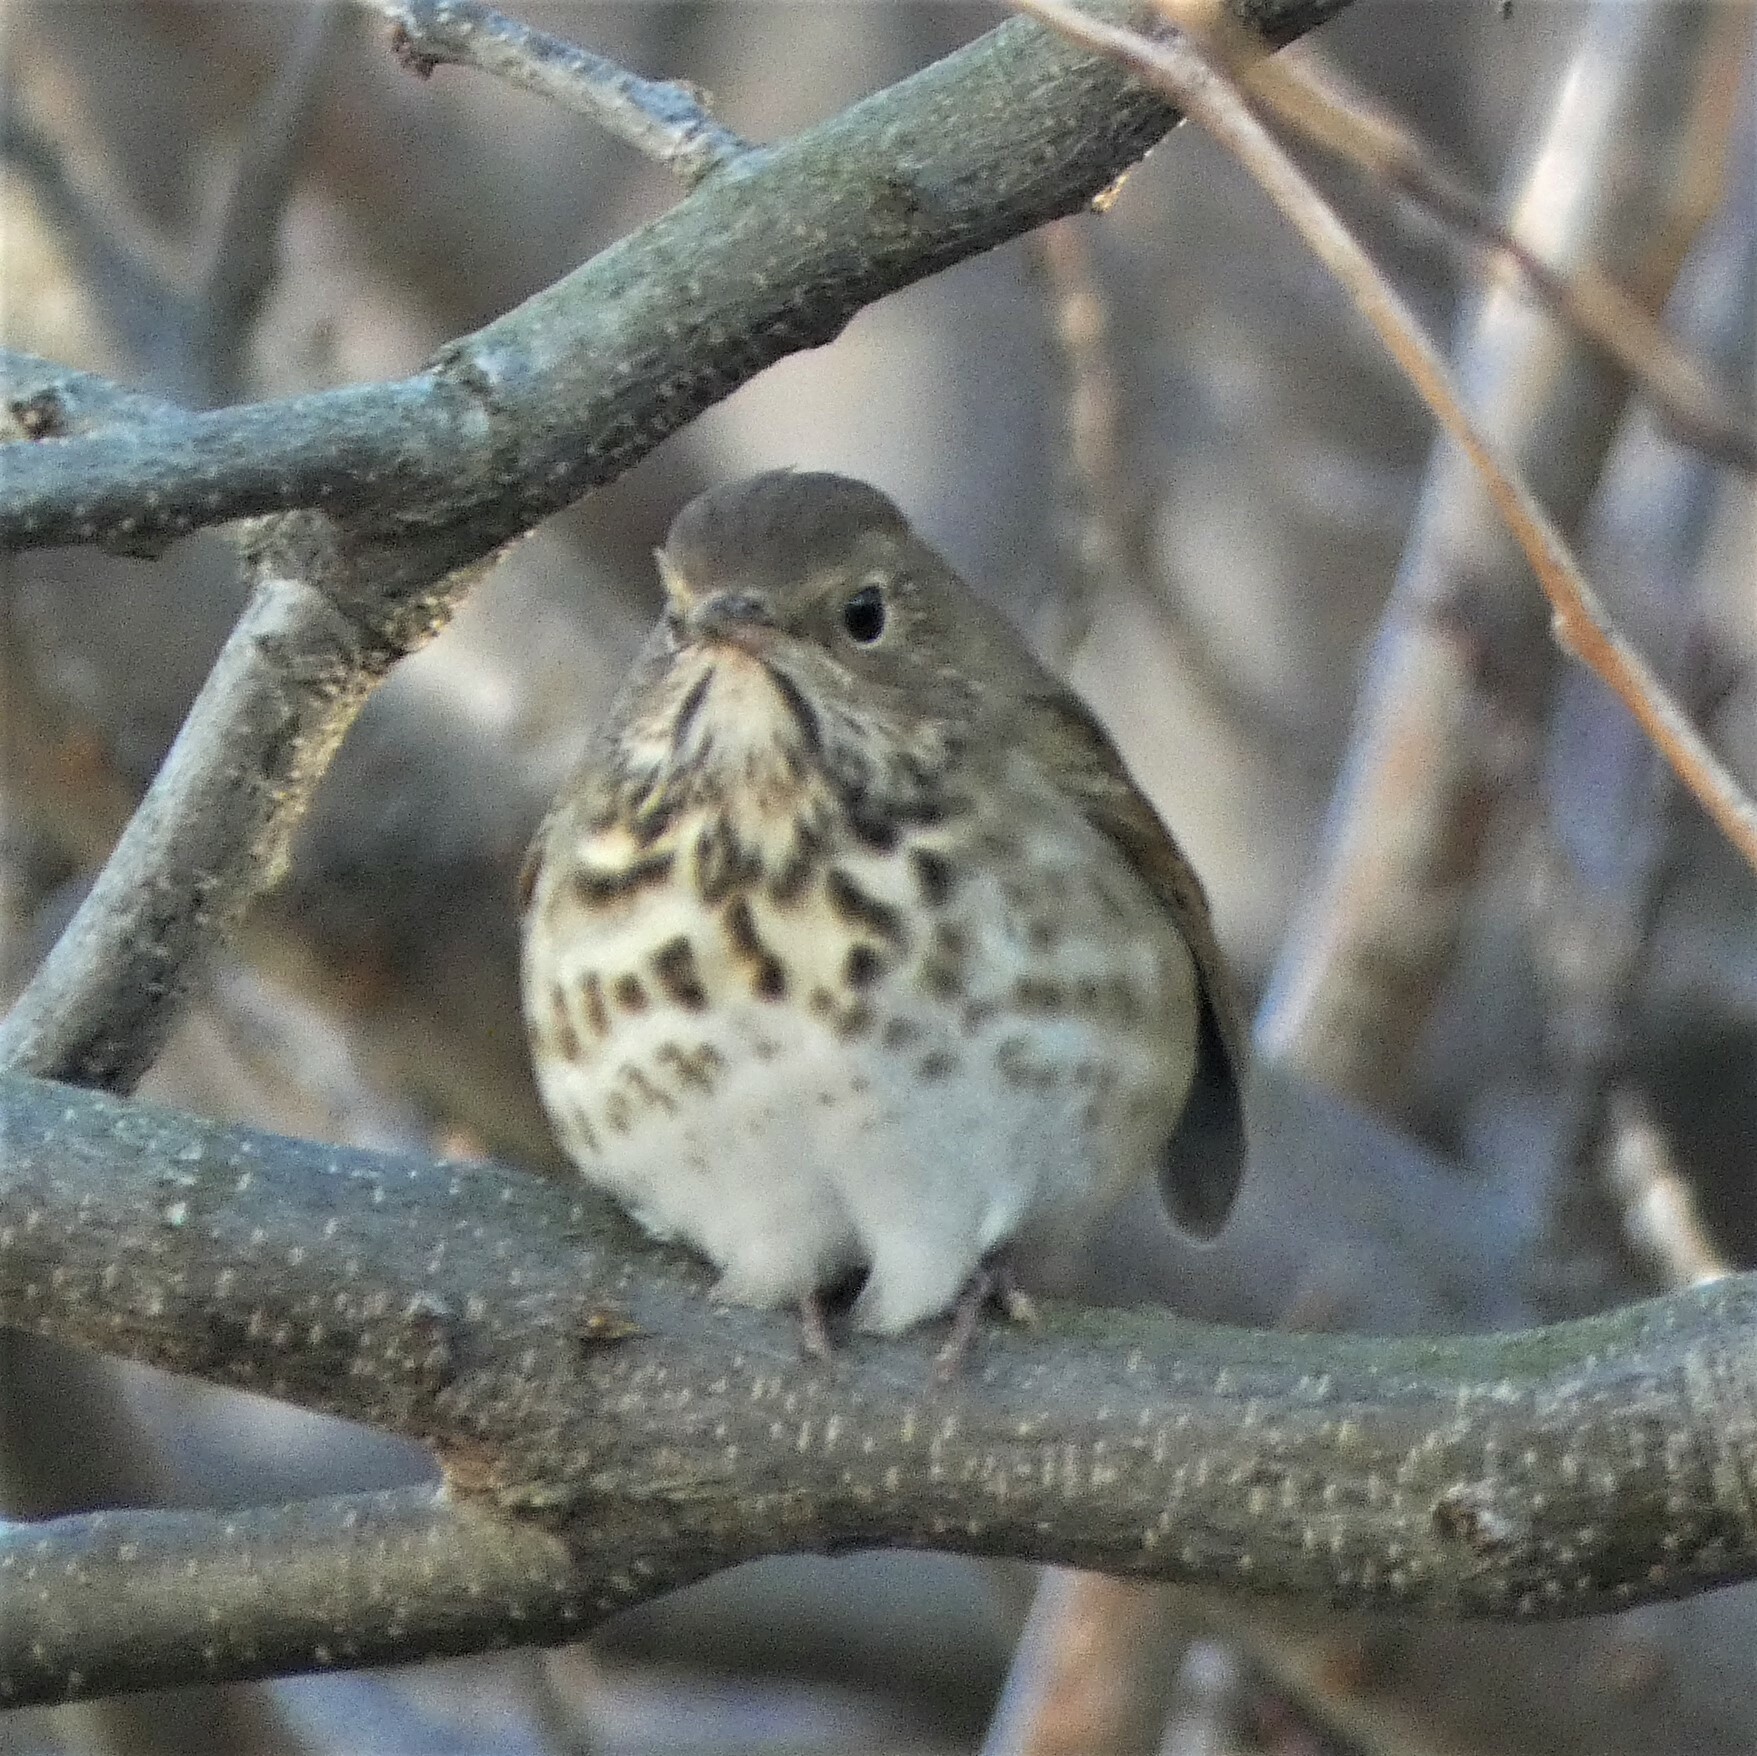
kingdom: Animalia
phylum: Chordata
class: Aves
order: Passeriformes
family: Turdidae
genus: Catharus
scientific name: Catharus guttatus
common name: Hermit thrush
